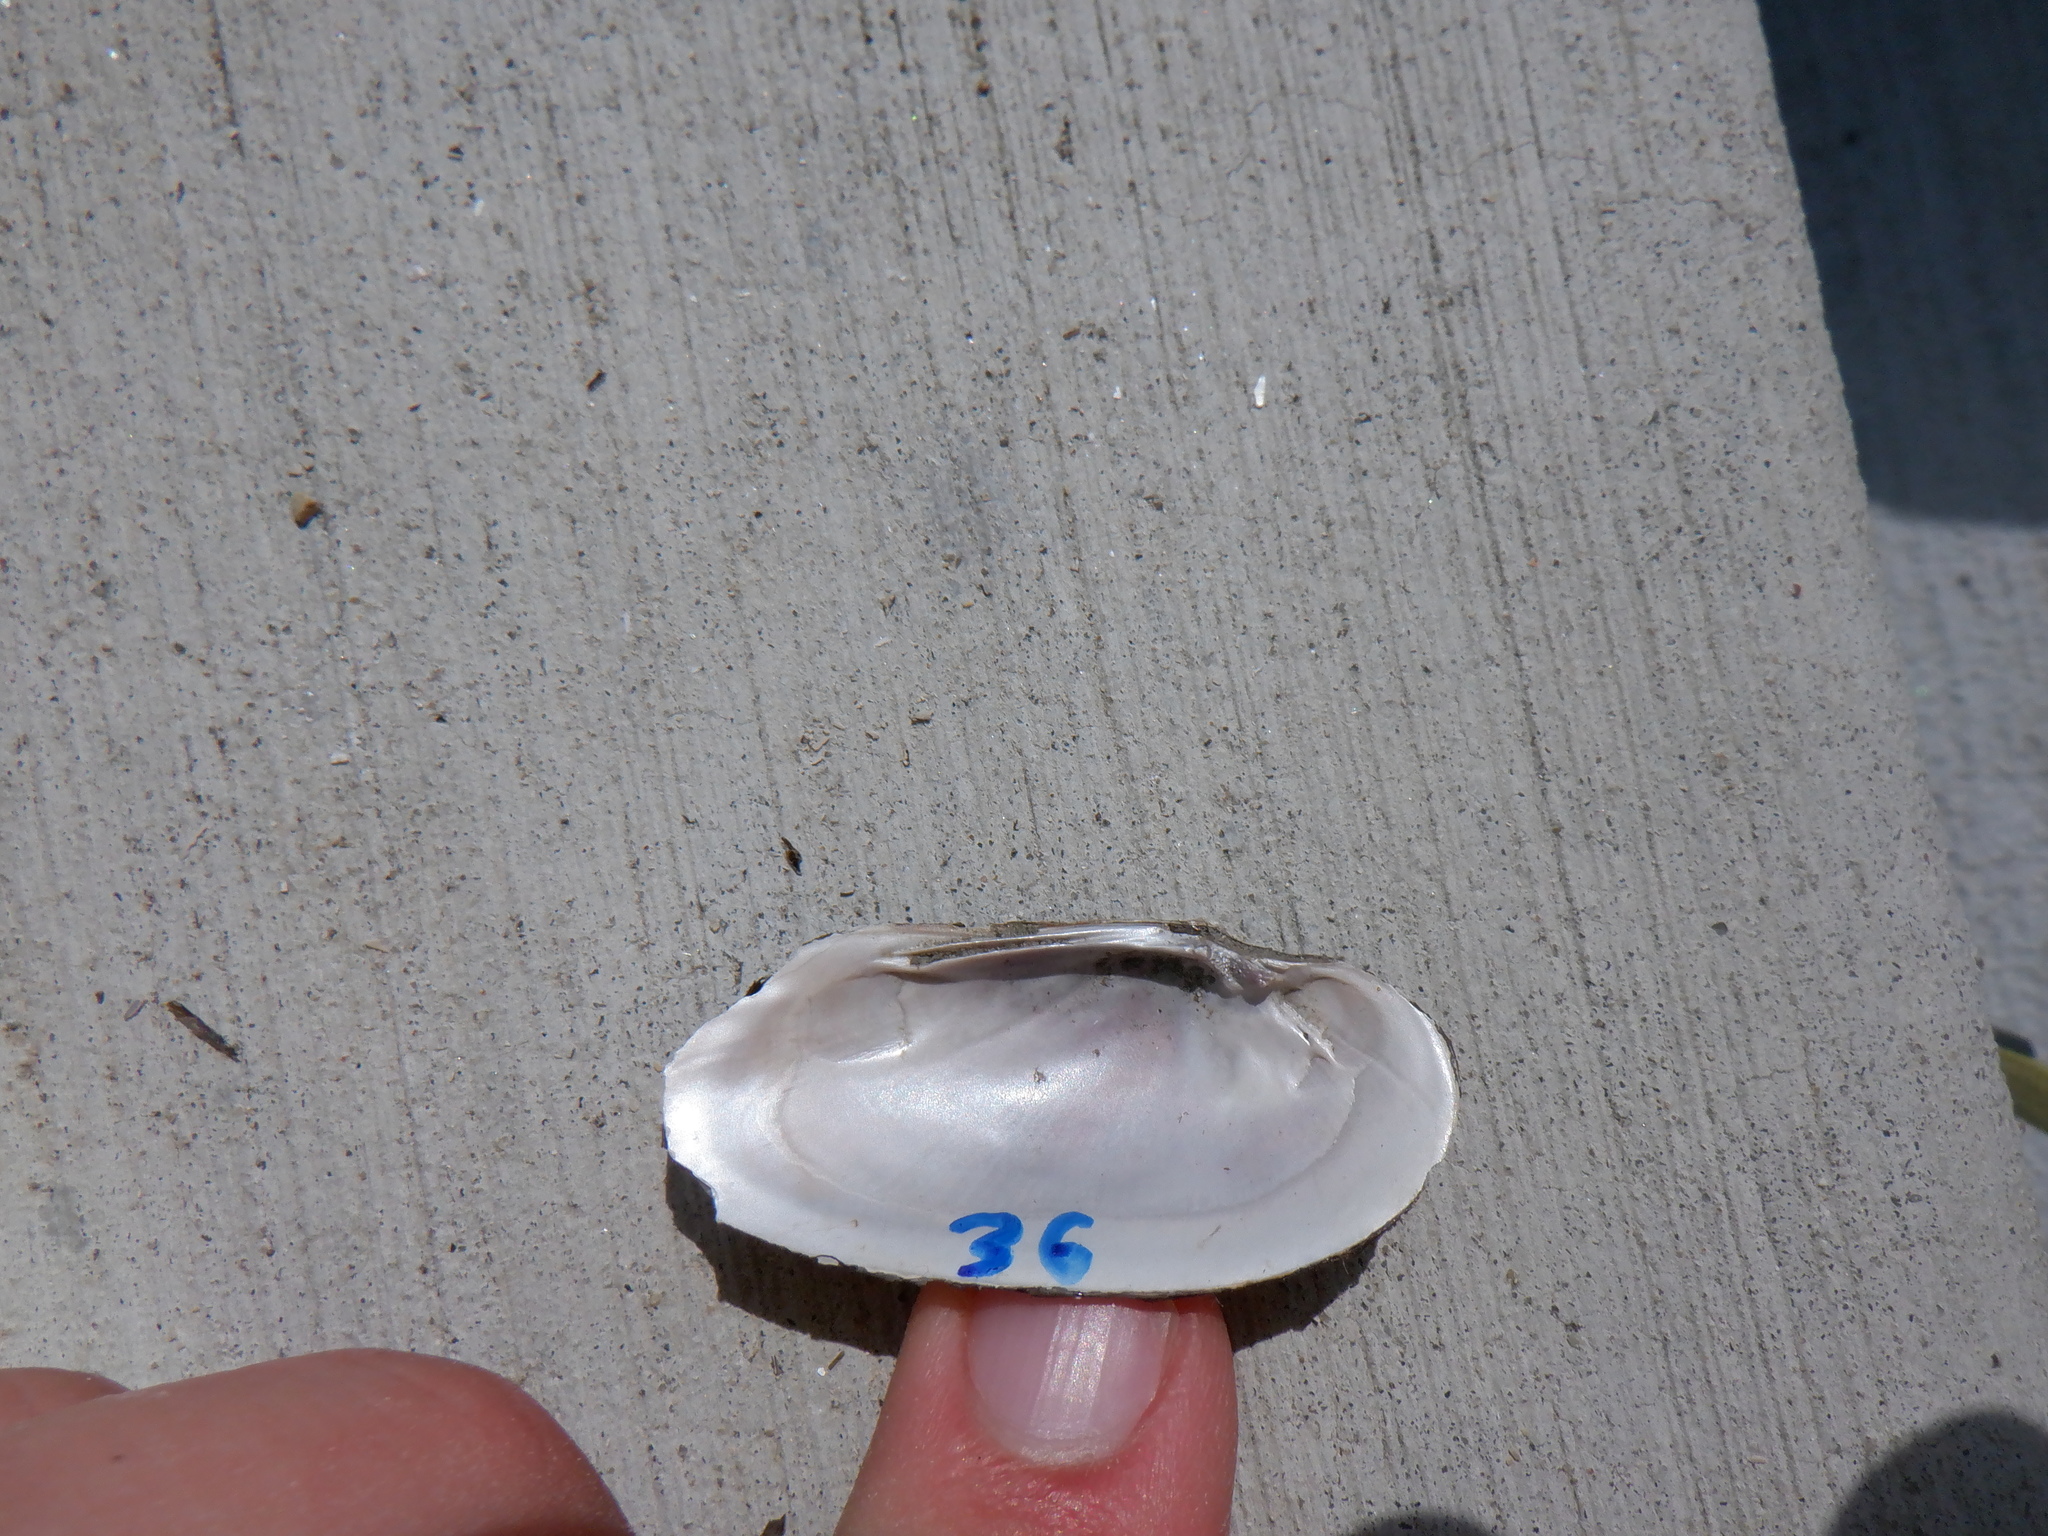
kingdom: Animalia
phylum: Mollusca
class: Bivalvia
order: Unionida
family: Unionidae
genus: Eurynia
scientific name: Eurynia dilatata
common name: Spike
